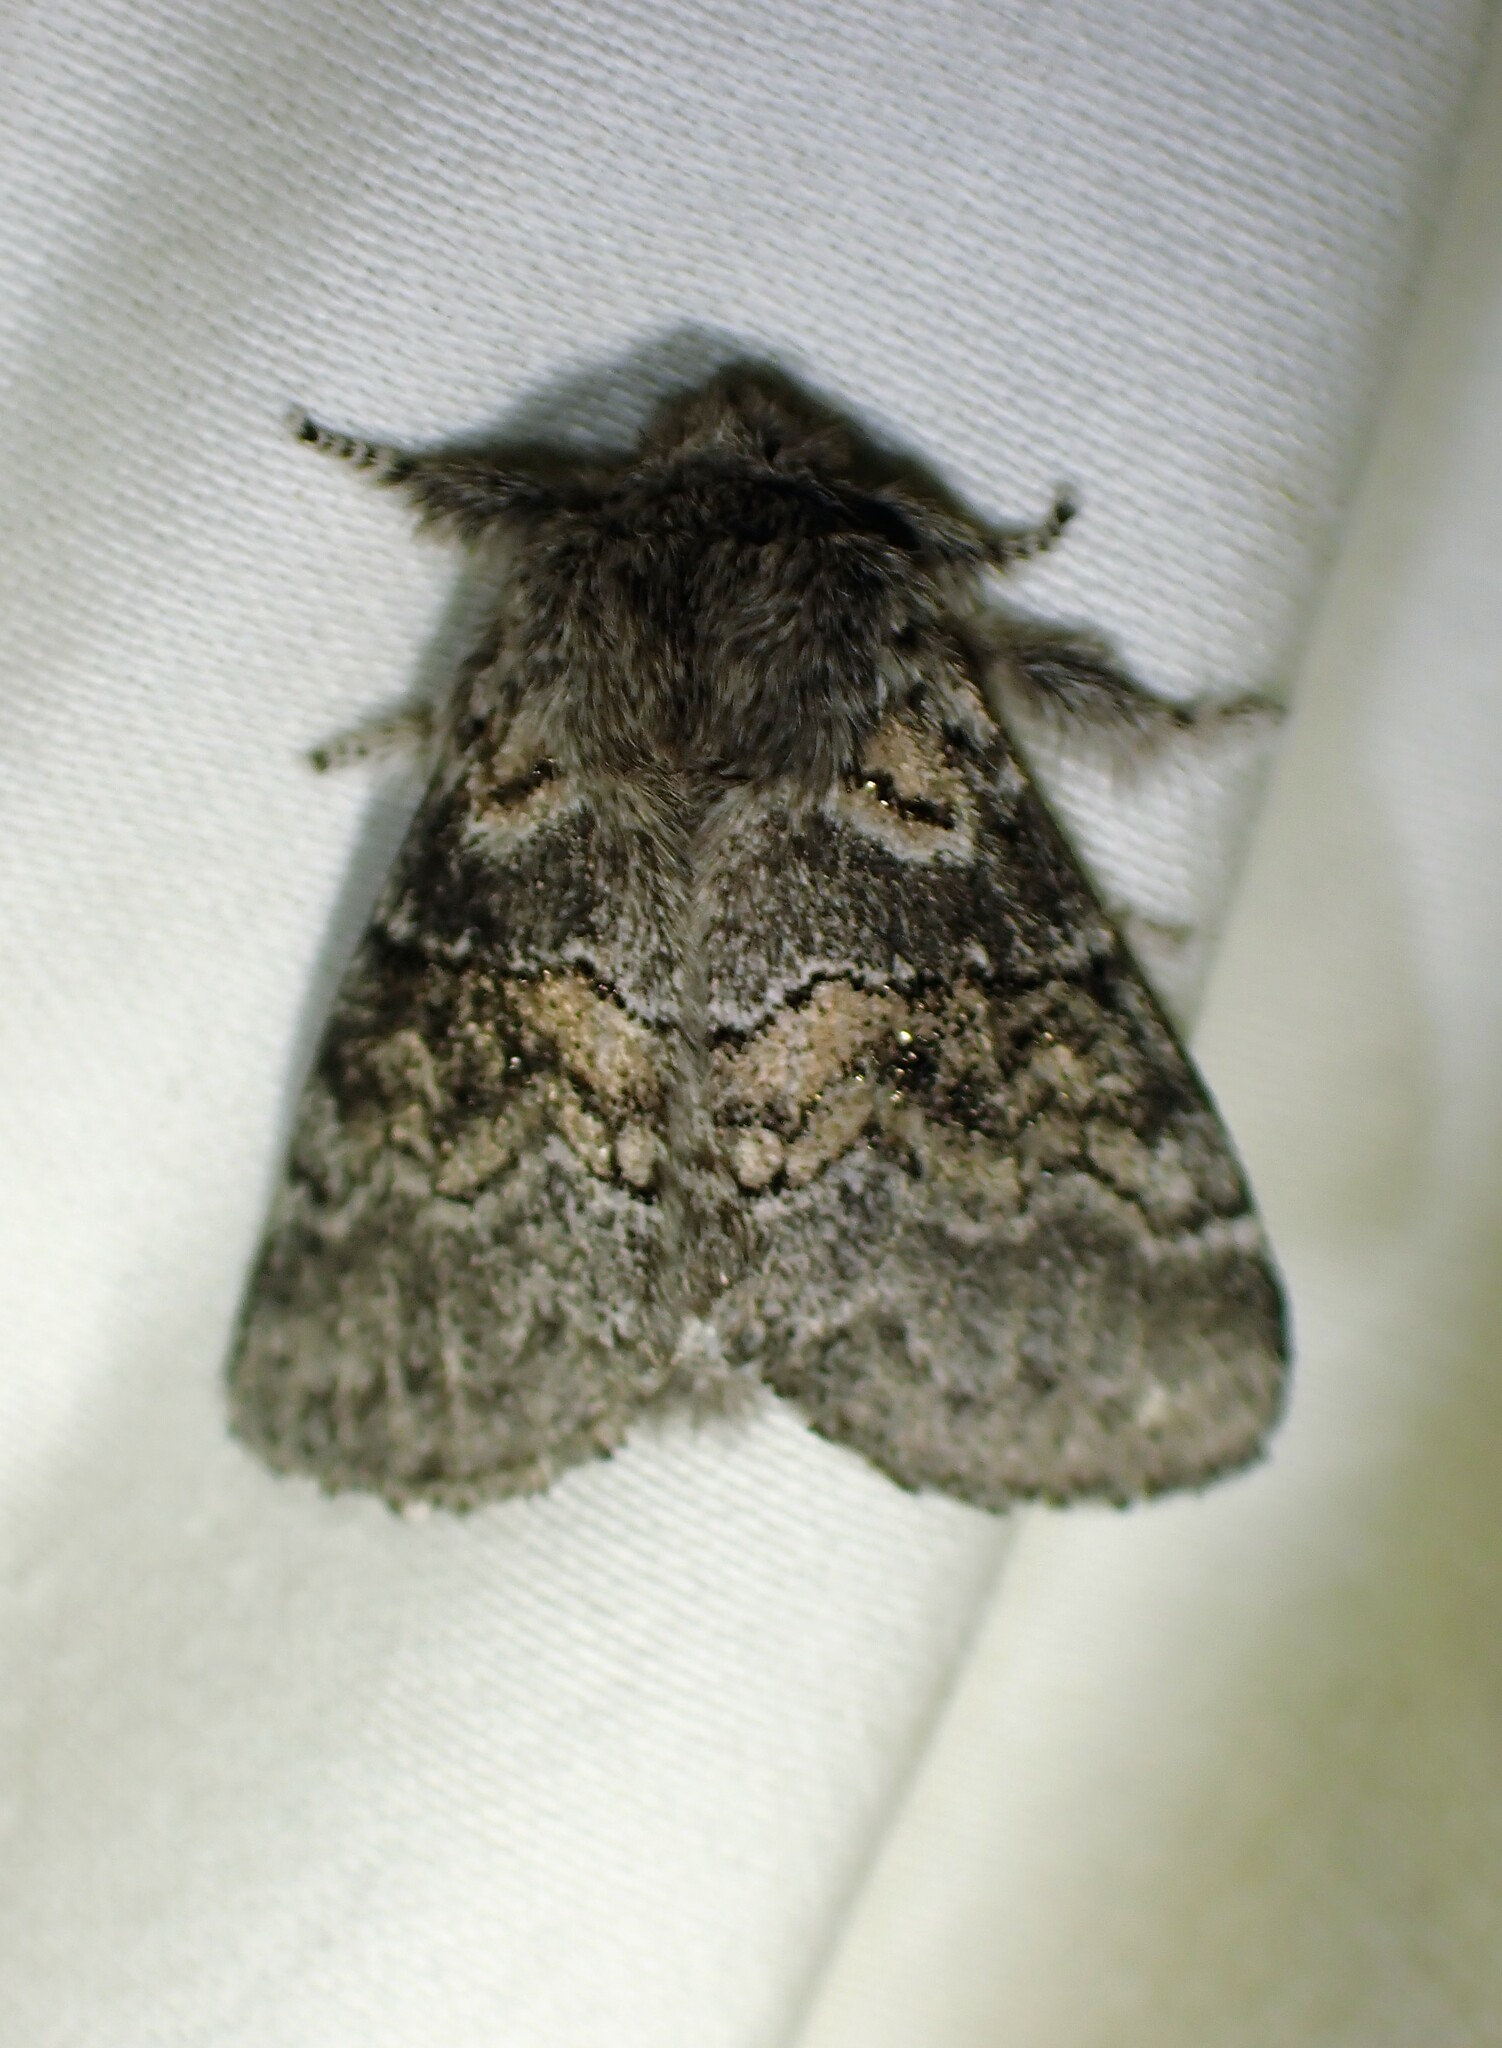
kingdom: Animalia
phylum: Arthropoda
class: Insecta
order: Lepidoptera
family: Notodontidae
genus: Gluphisia
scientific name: Gluphisia septentrionis
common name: Common gluphisia
